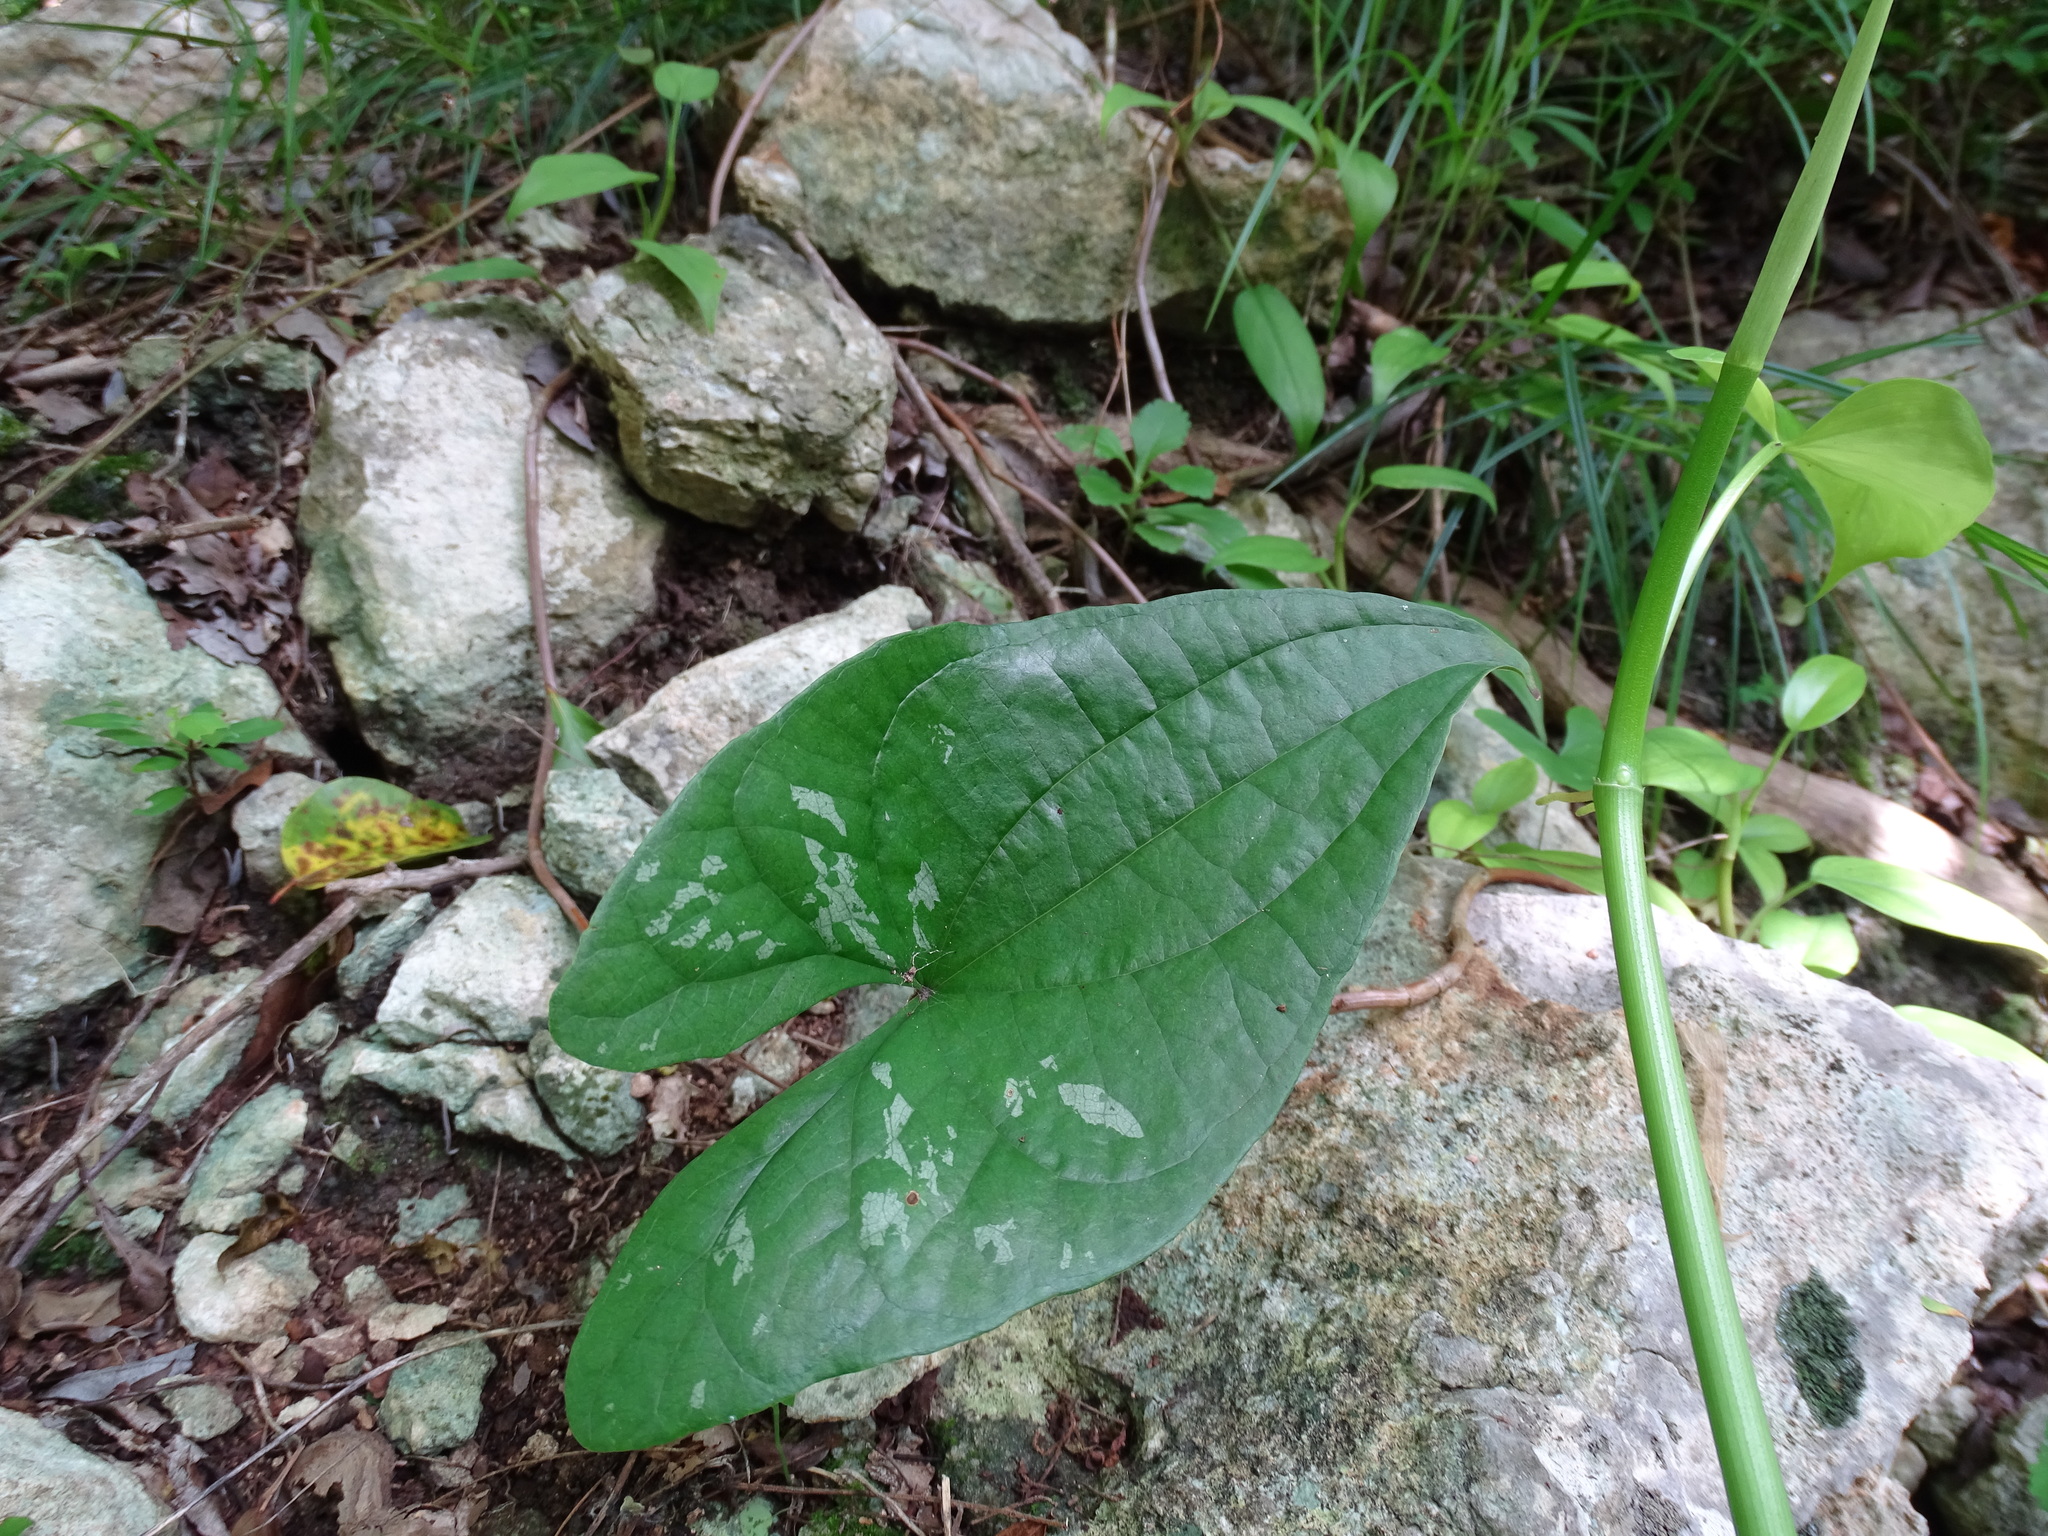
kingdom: Plantae
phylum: Tracheophyta
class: Liliopsida
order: Dioscoreales
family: Dioscoreaceae
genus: Dioscorea
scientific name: Dioscorea cyanisticta
